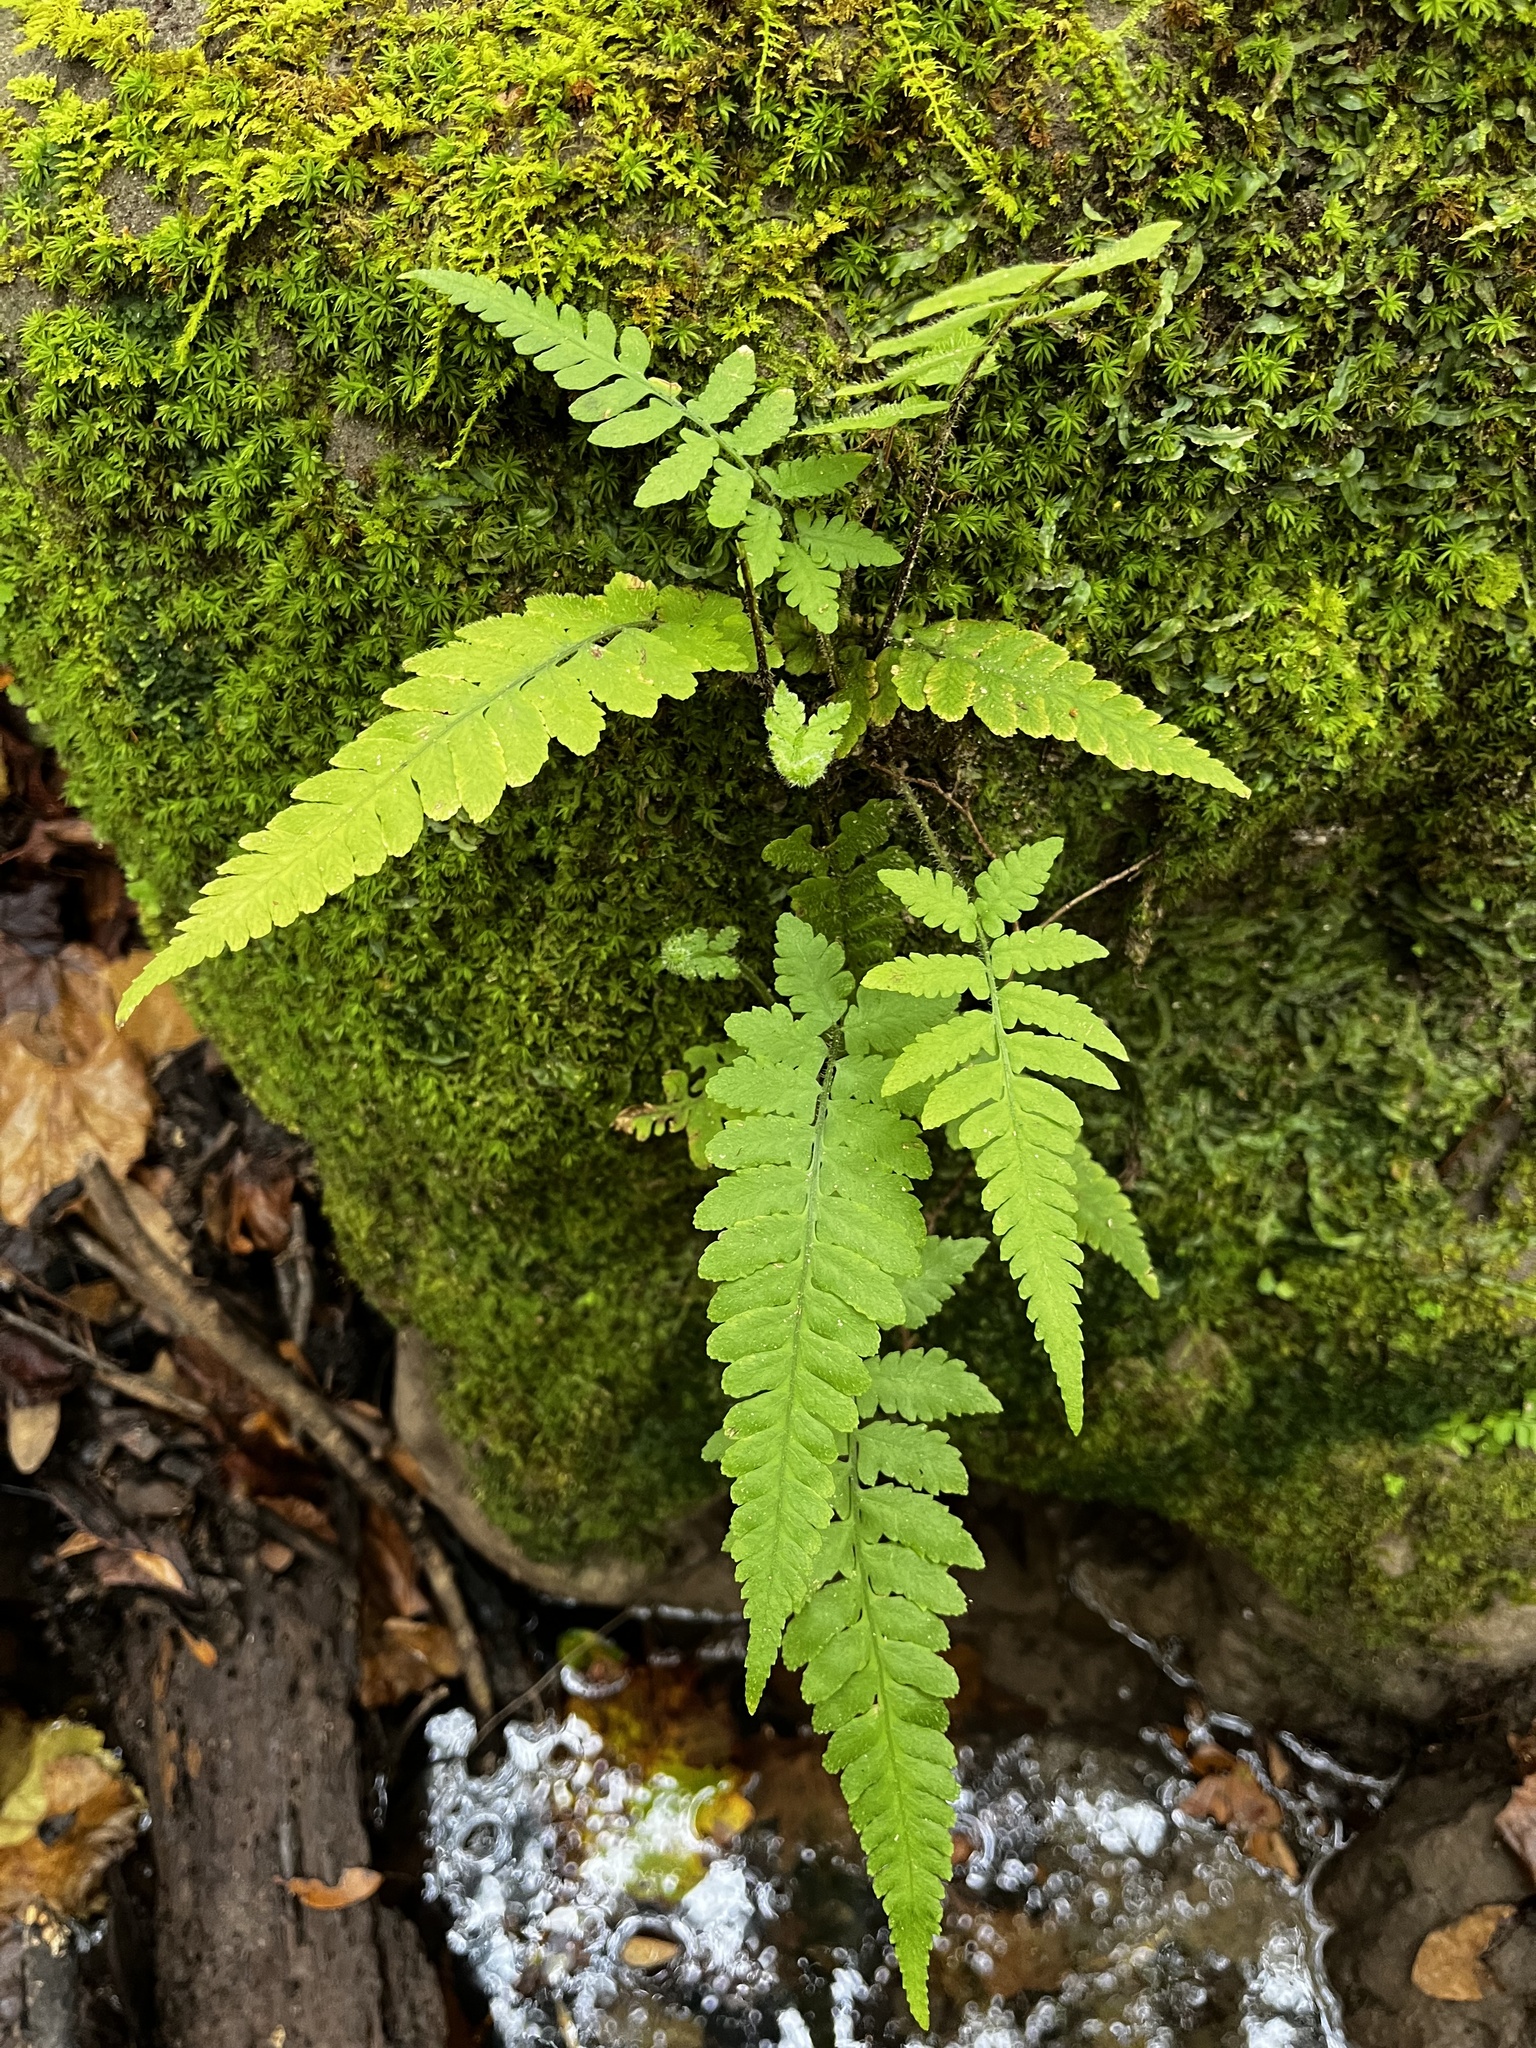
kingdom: Plantae
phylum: Tracheophyta
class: Polypodiopsida
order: Polypodiales
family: Athyriaceae
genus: Deparia
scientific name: Deparia petersenii
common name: Japanese false spleenwort
